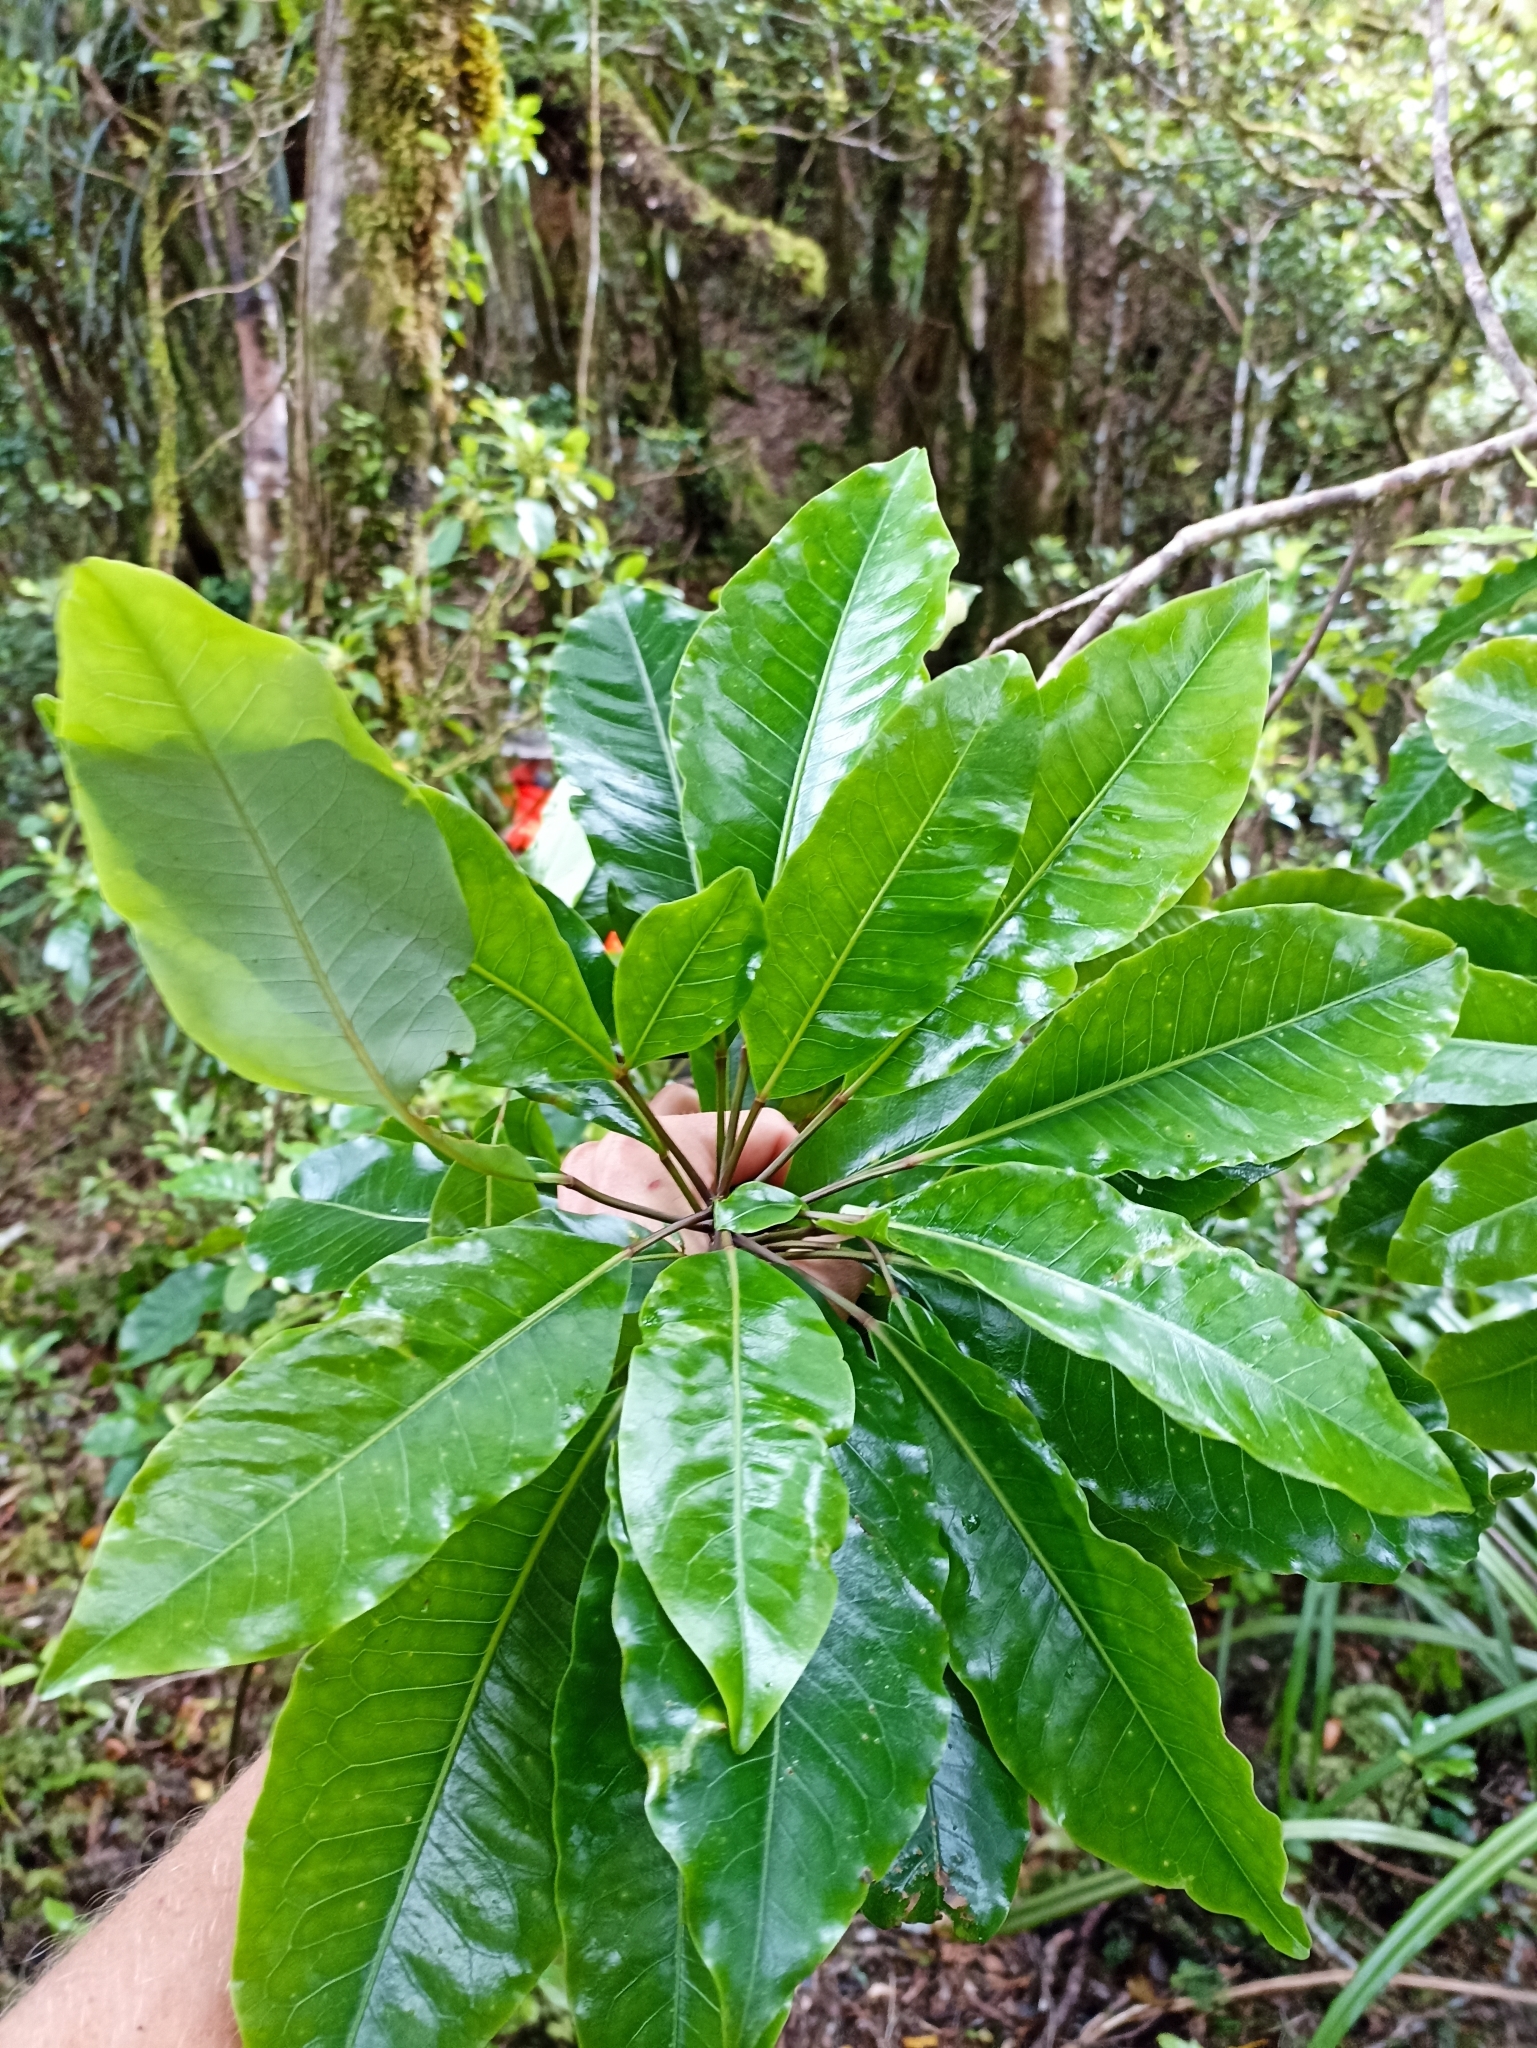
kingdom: Plantae
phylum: Tracheophyta
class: Magnoliopsida
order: Apiales
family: Araliaceae
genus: Raukaua
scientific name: Raukaua edgerleyi
